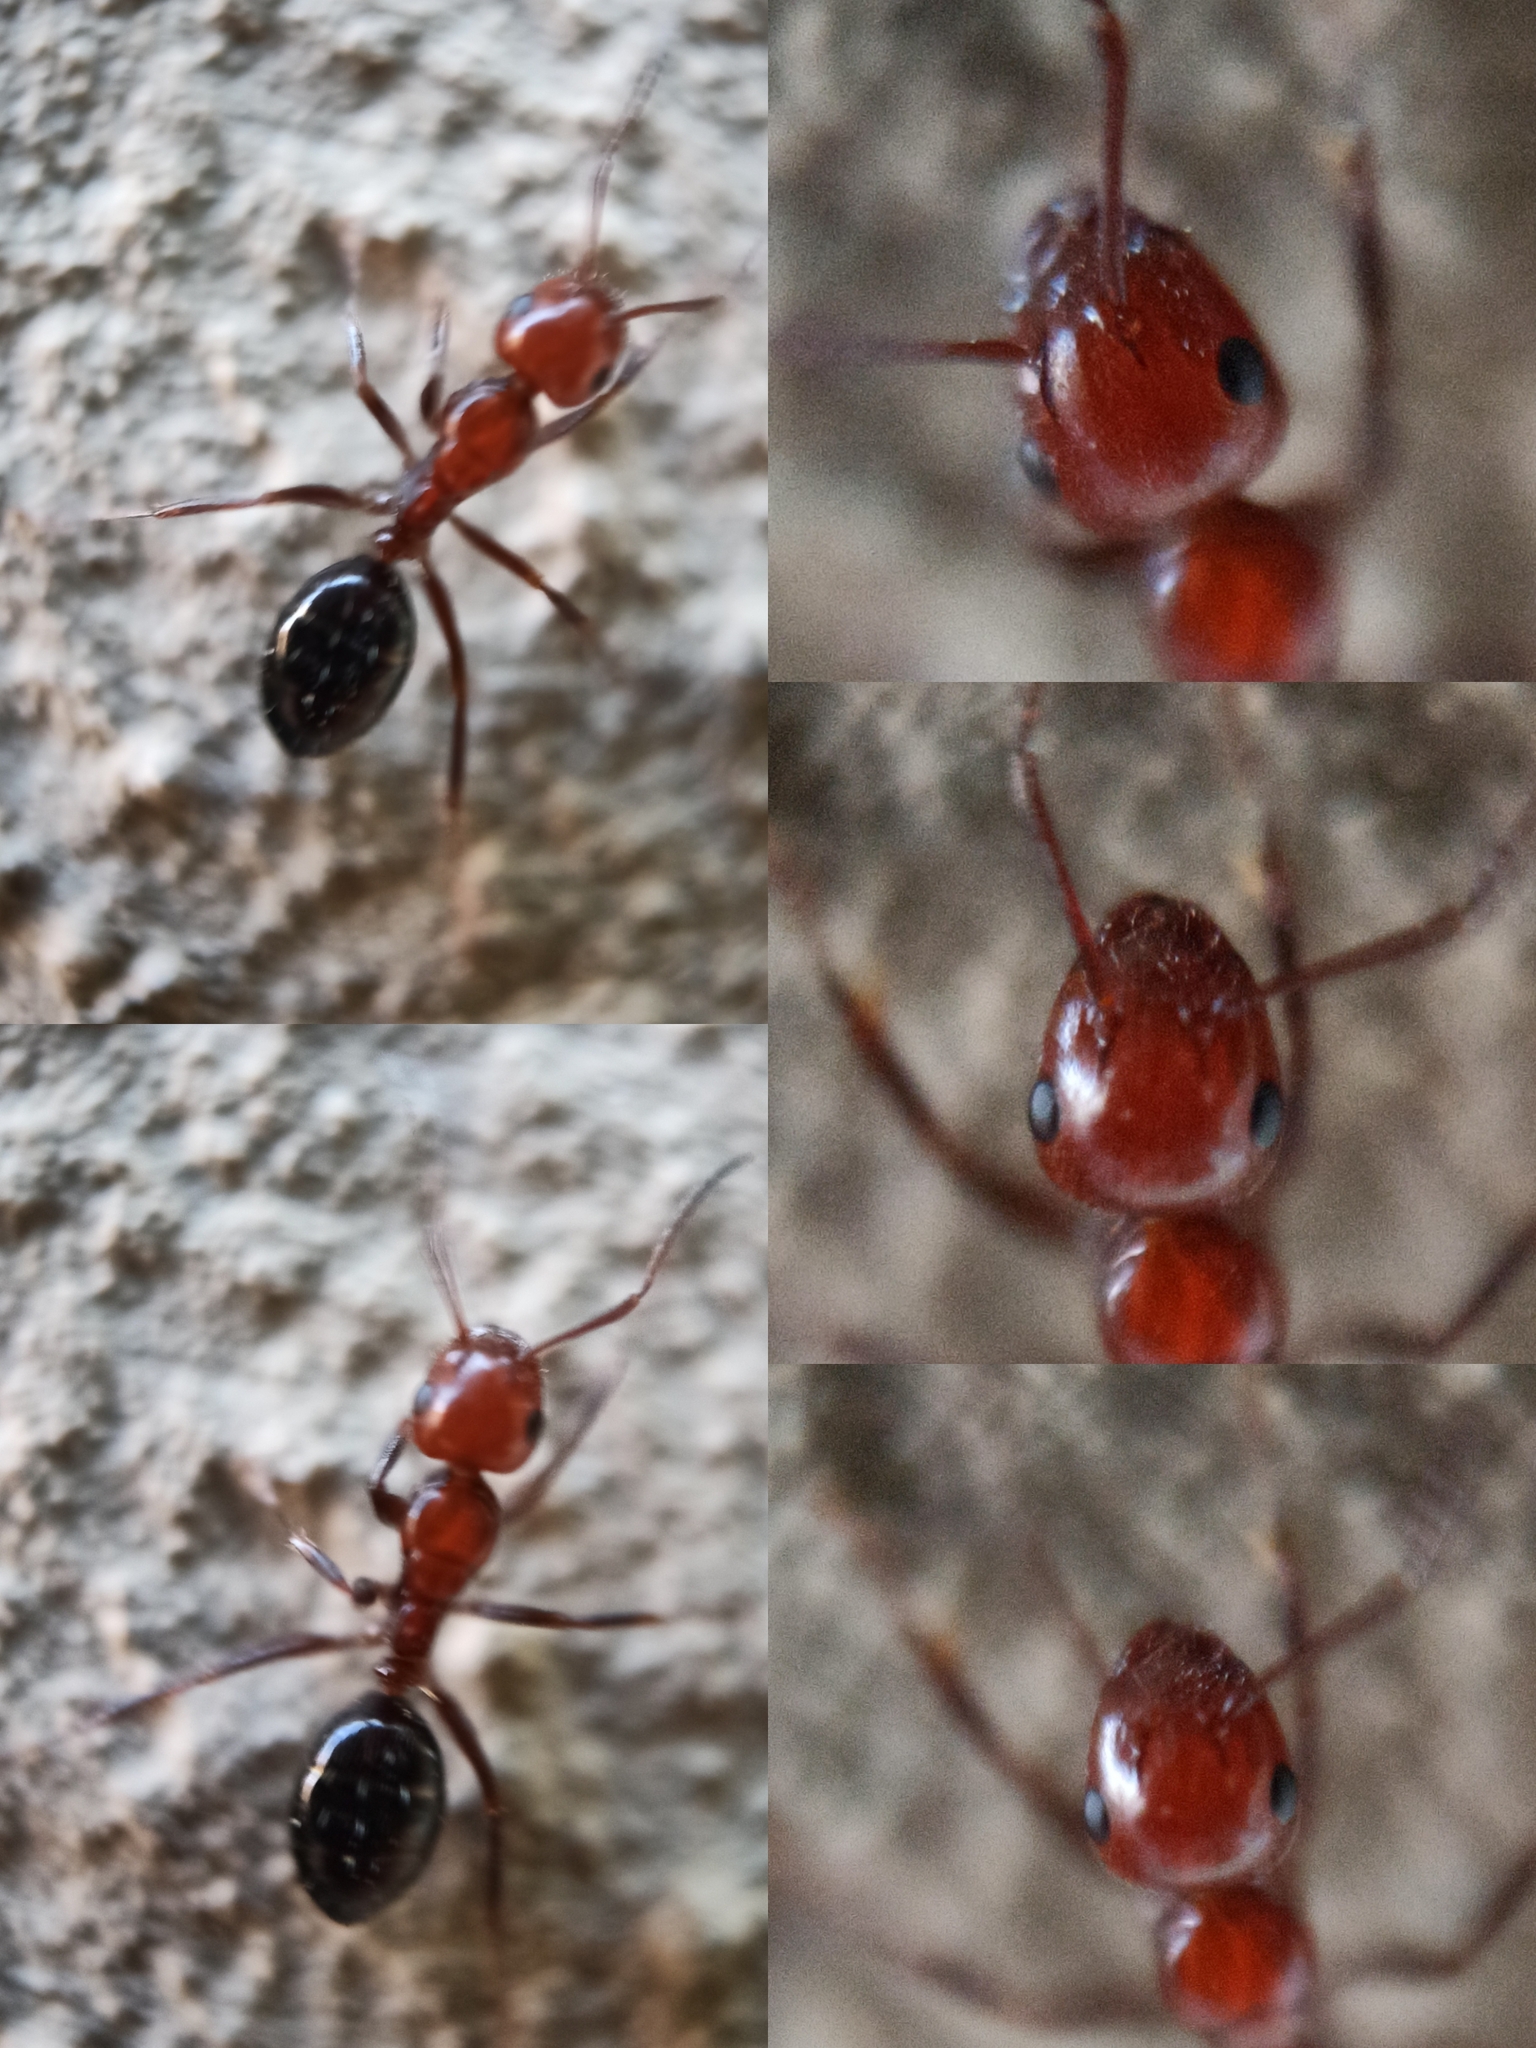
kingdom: Animalia
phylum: Arthropoda
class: Insecta
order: Hymenoptera
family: Formicidae
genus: Camponotus
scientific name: Camponotus lateralis
